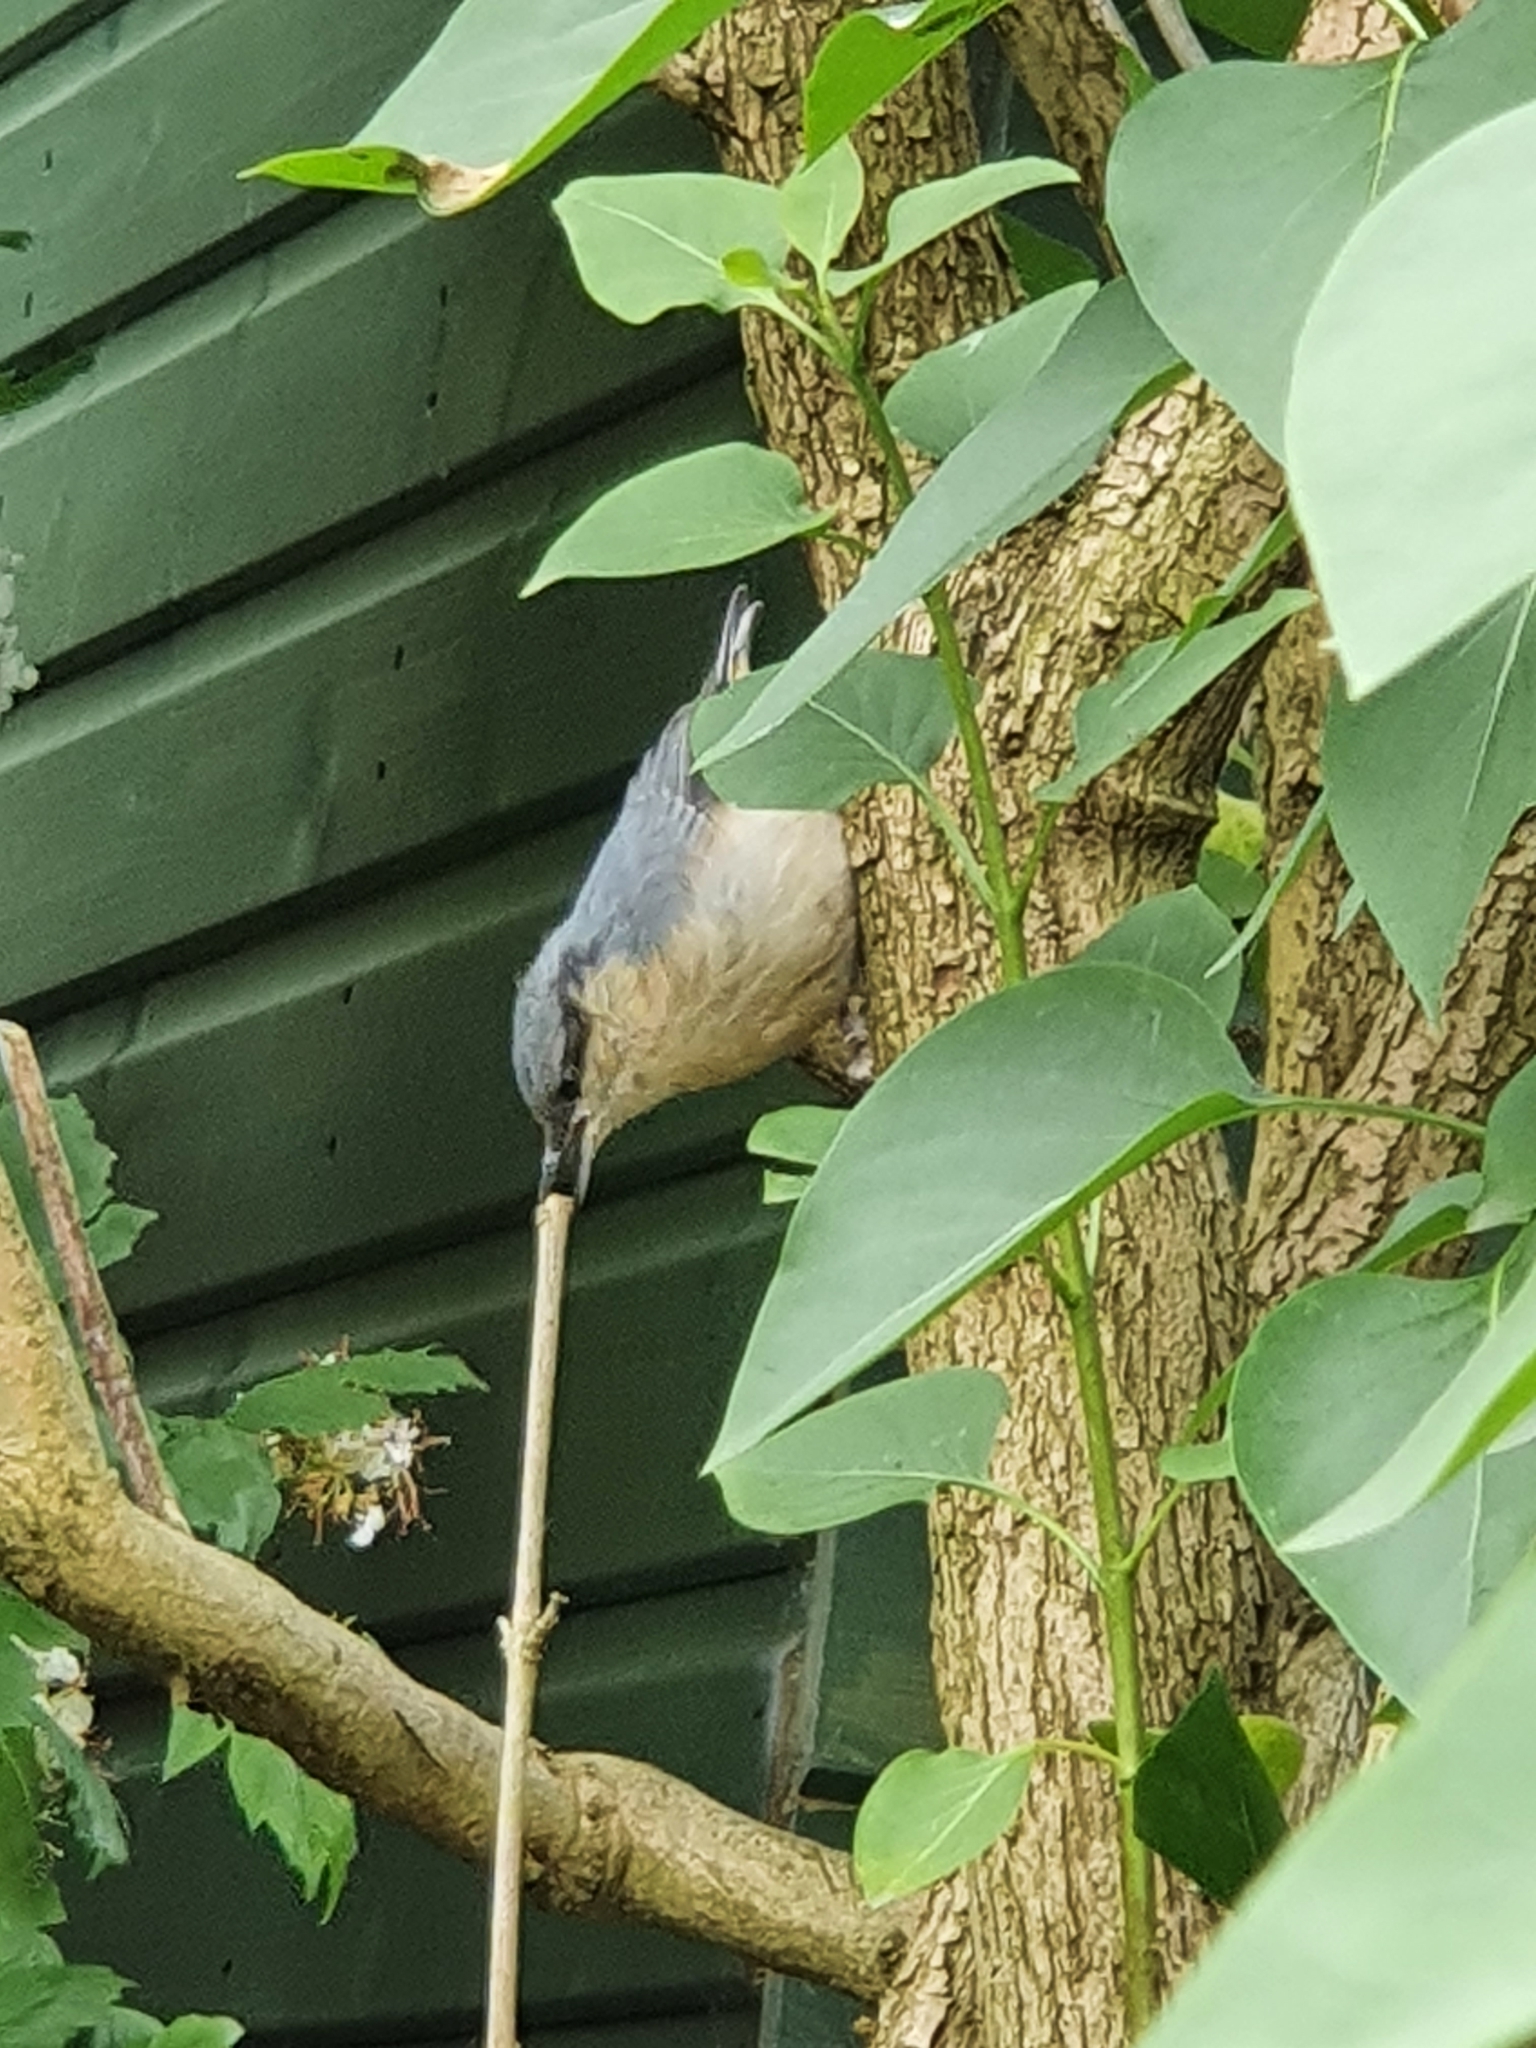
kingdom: Animalia
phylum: Chordata
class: Aves
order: Passeriformes
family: Sittidae
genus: Sitta
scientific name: Sitta europaea
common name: Eurasian nuthatch
